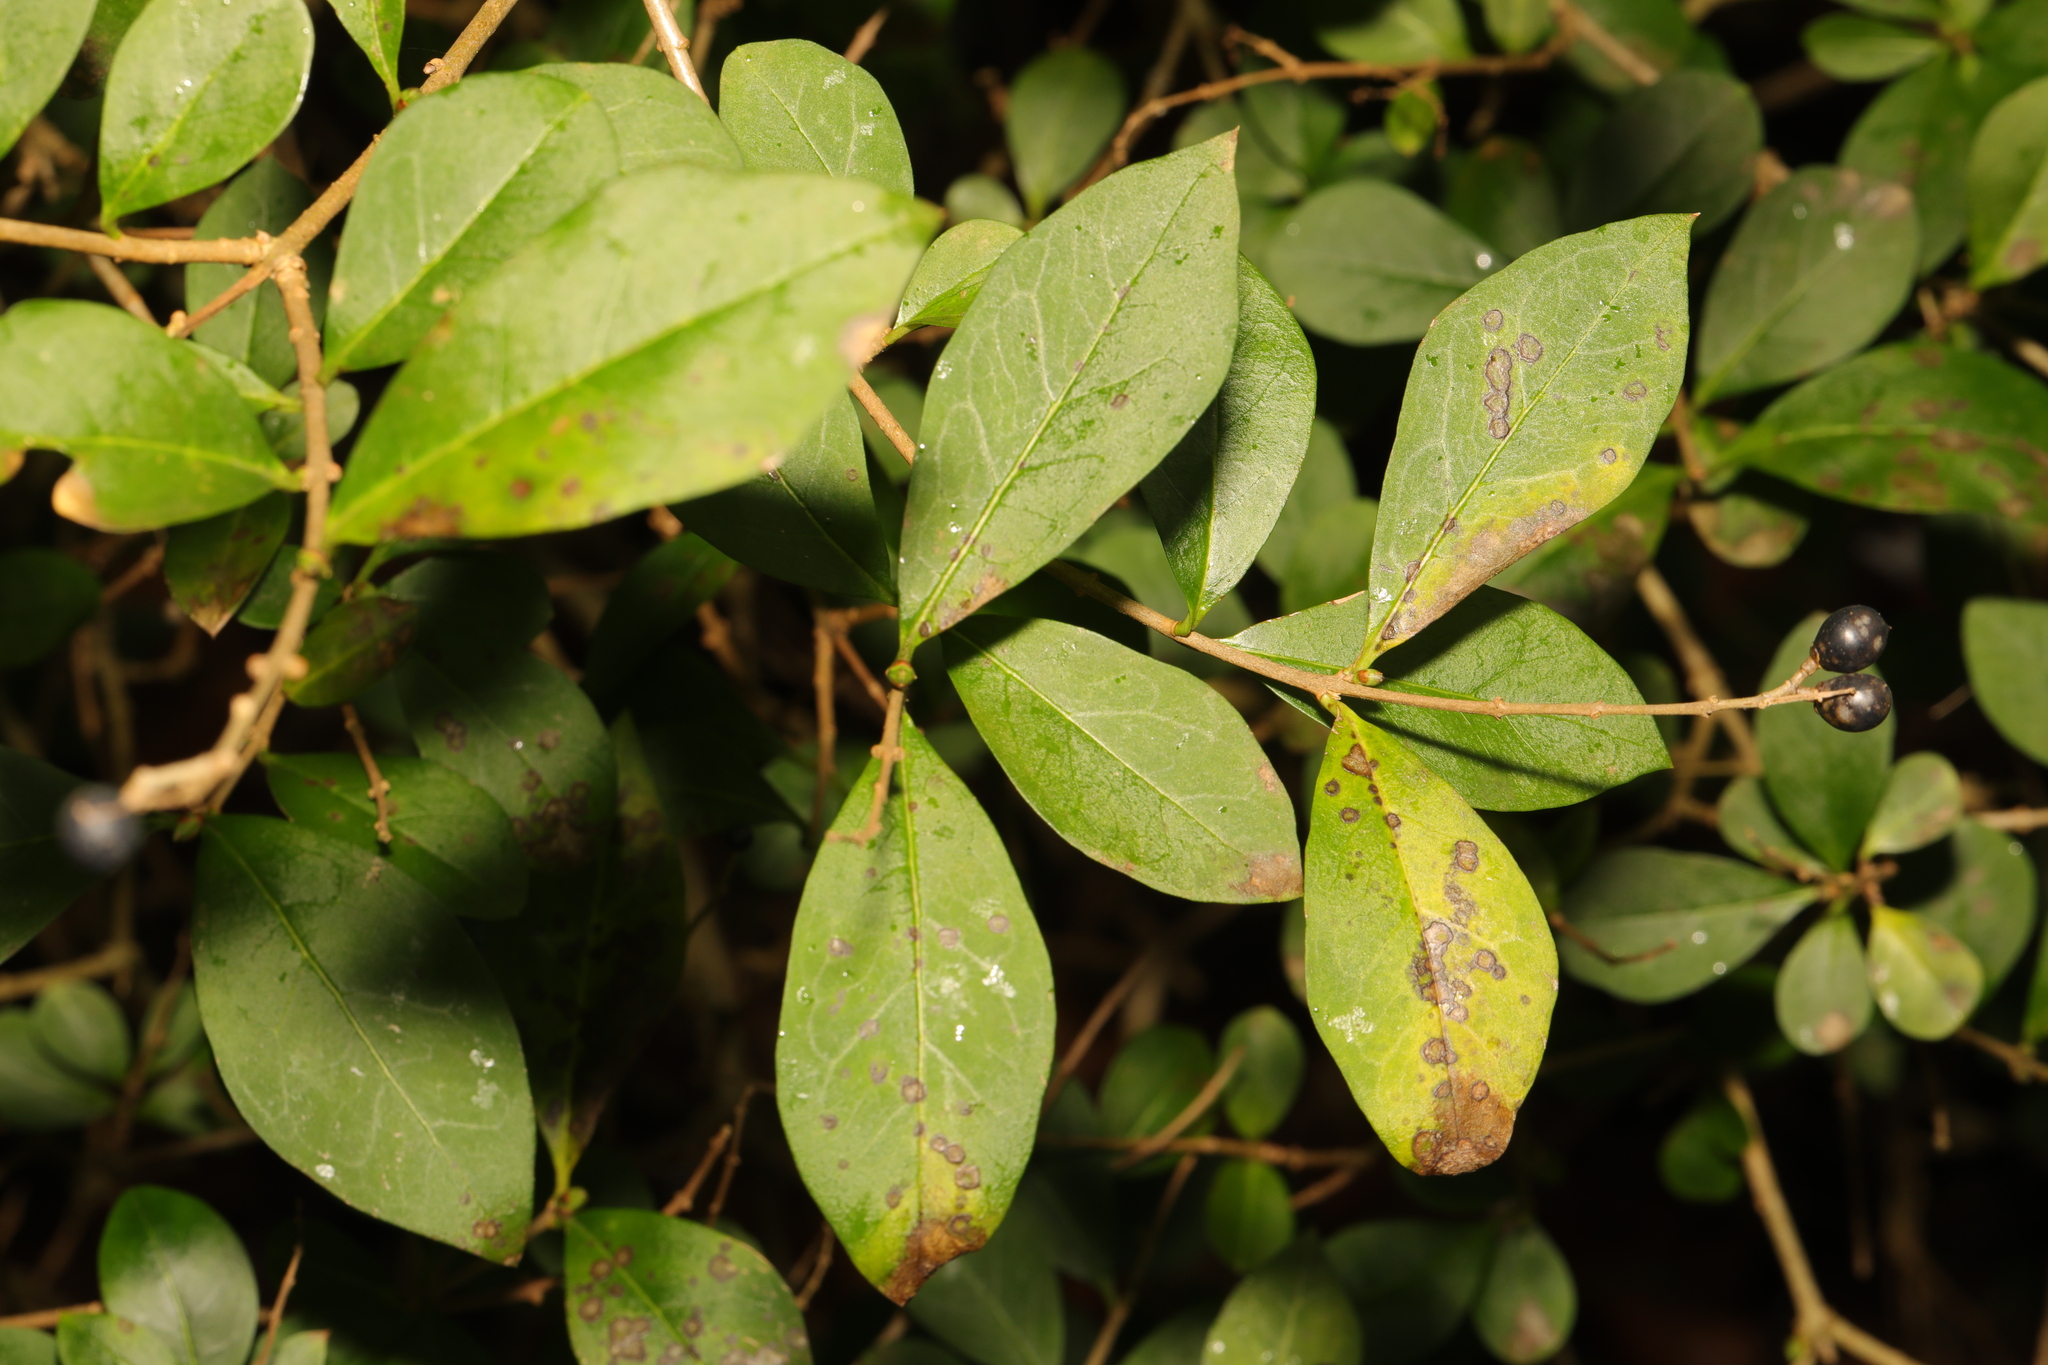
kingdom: Plantae
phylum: Tracheophyta
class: Magnoliopsida
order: Lamiales
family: Oleaceae
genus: Ligustrum
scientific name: Ligustrum ovalifolium
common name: California privet
